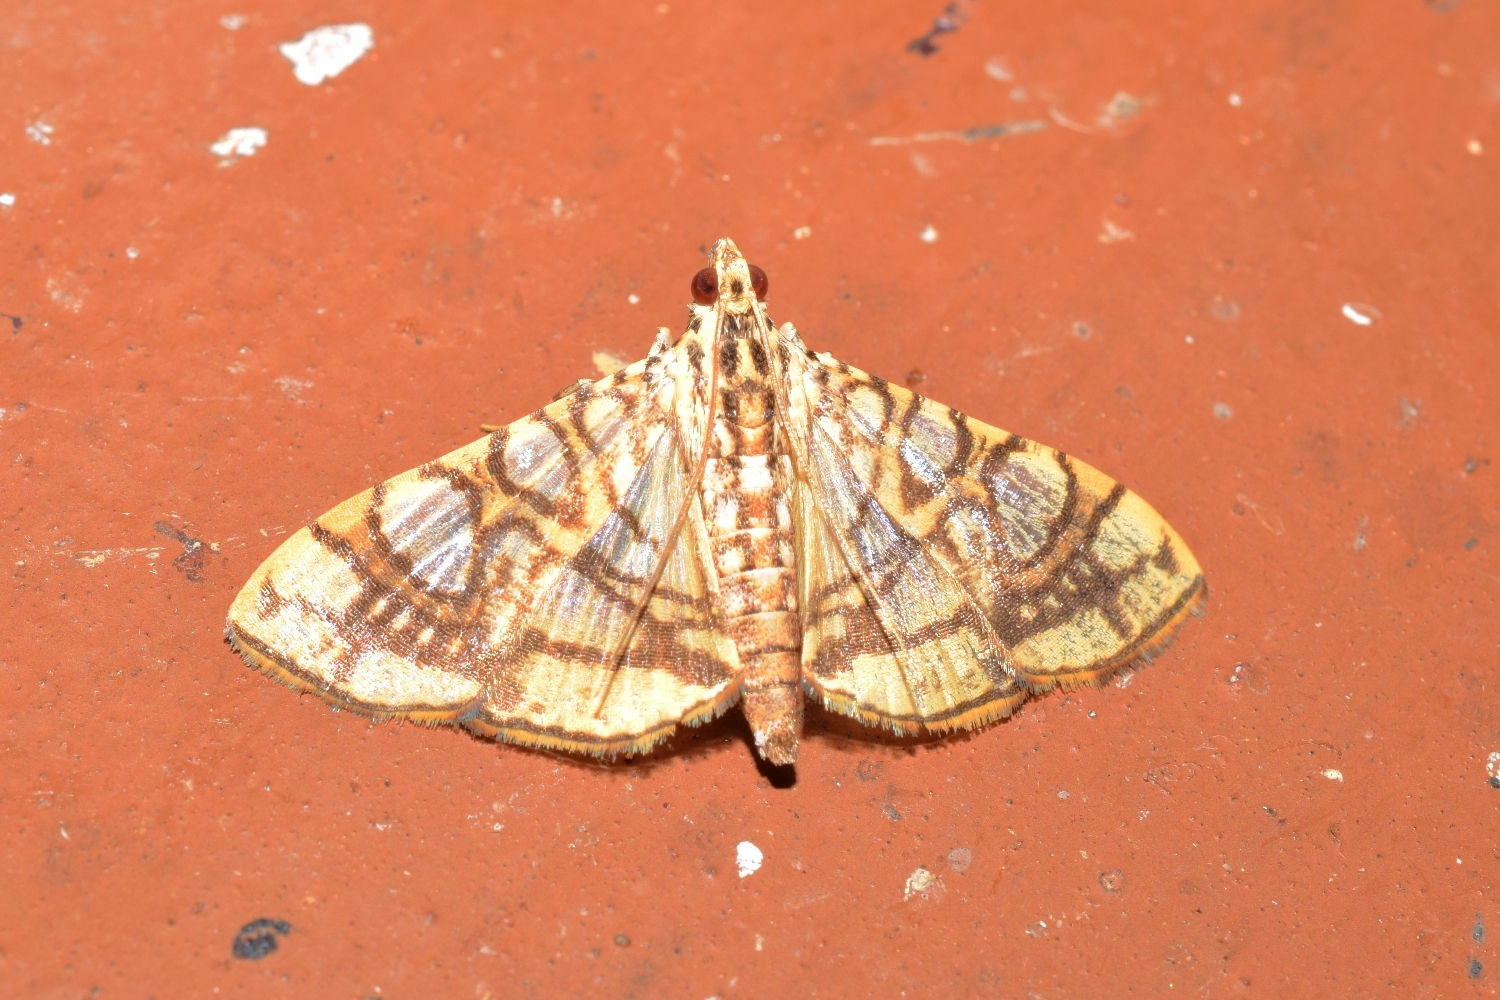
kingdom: Animalia
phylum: Arthropoda
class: Insecta
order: Lepidoptera
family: Crambidae
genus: Glyphodes
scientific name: Glyphodes caesalis
